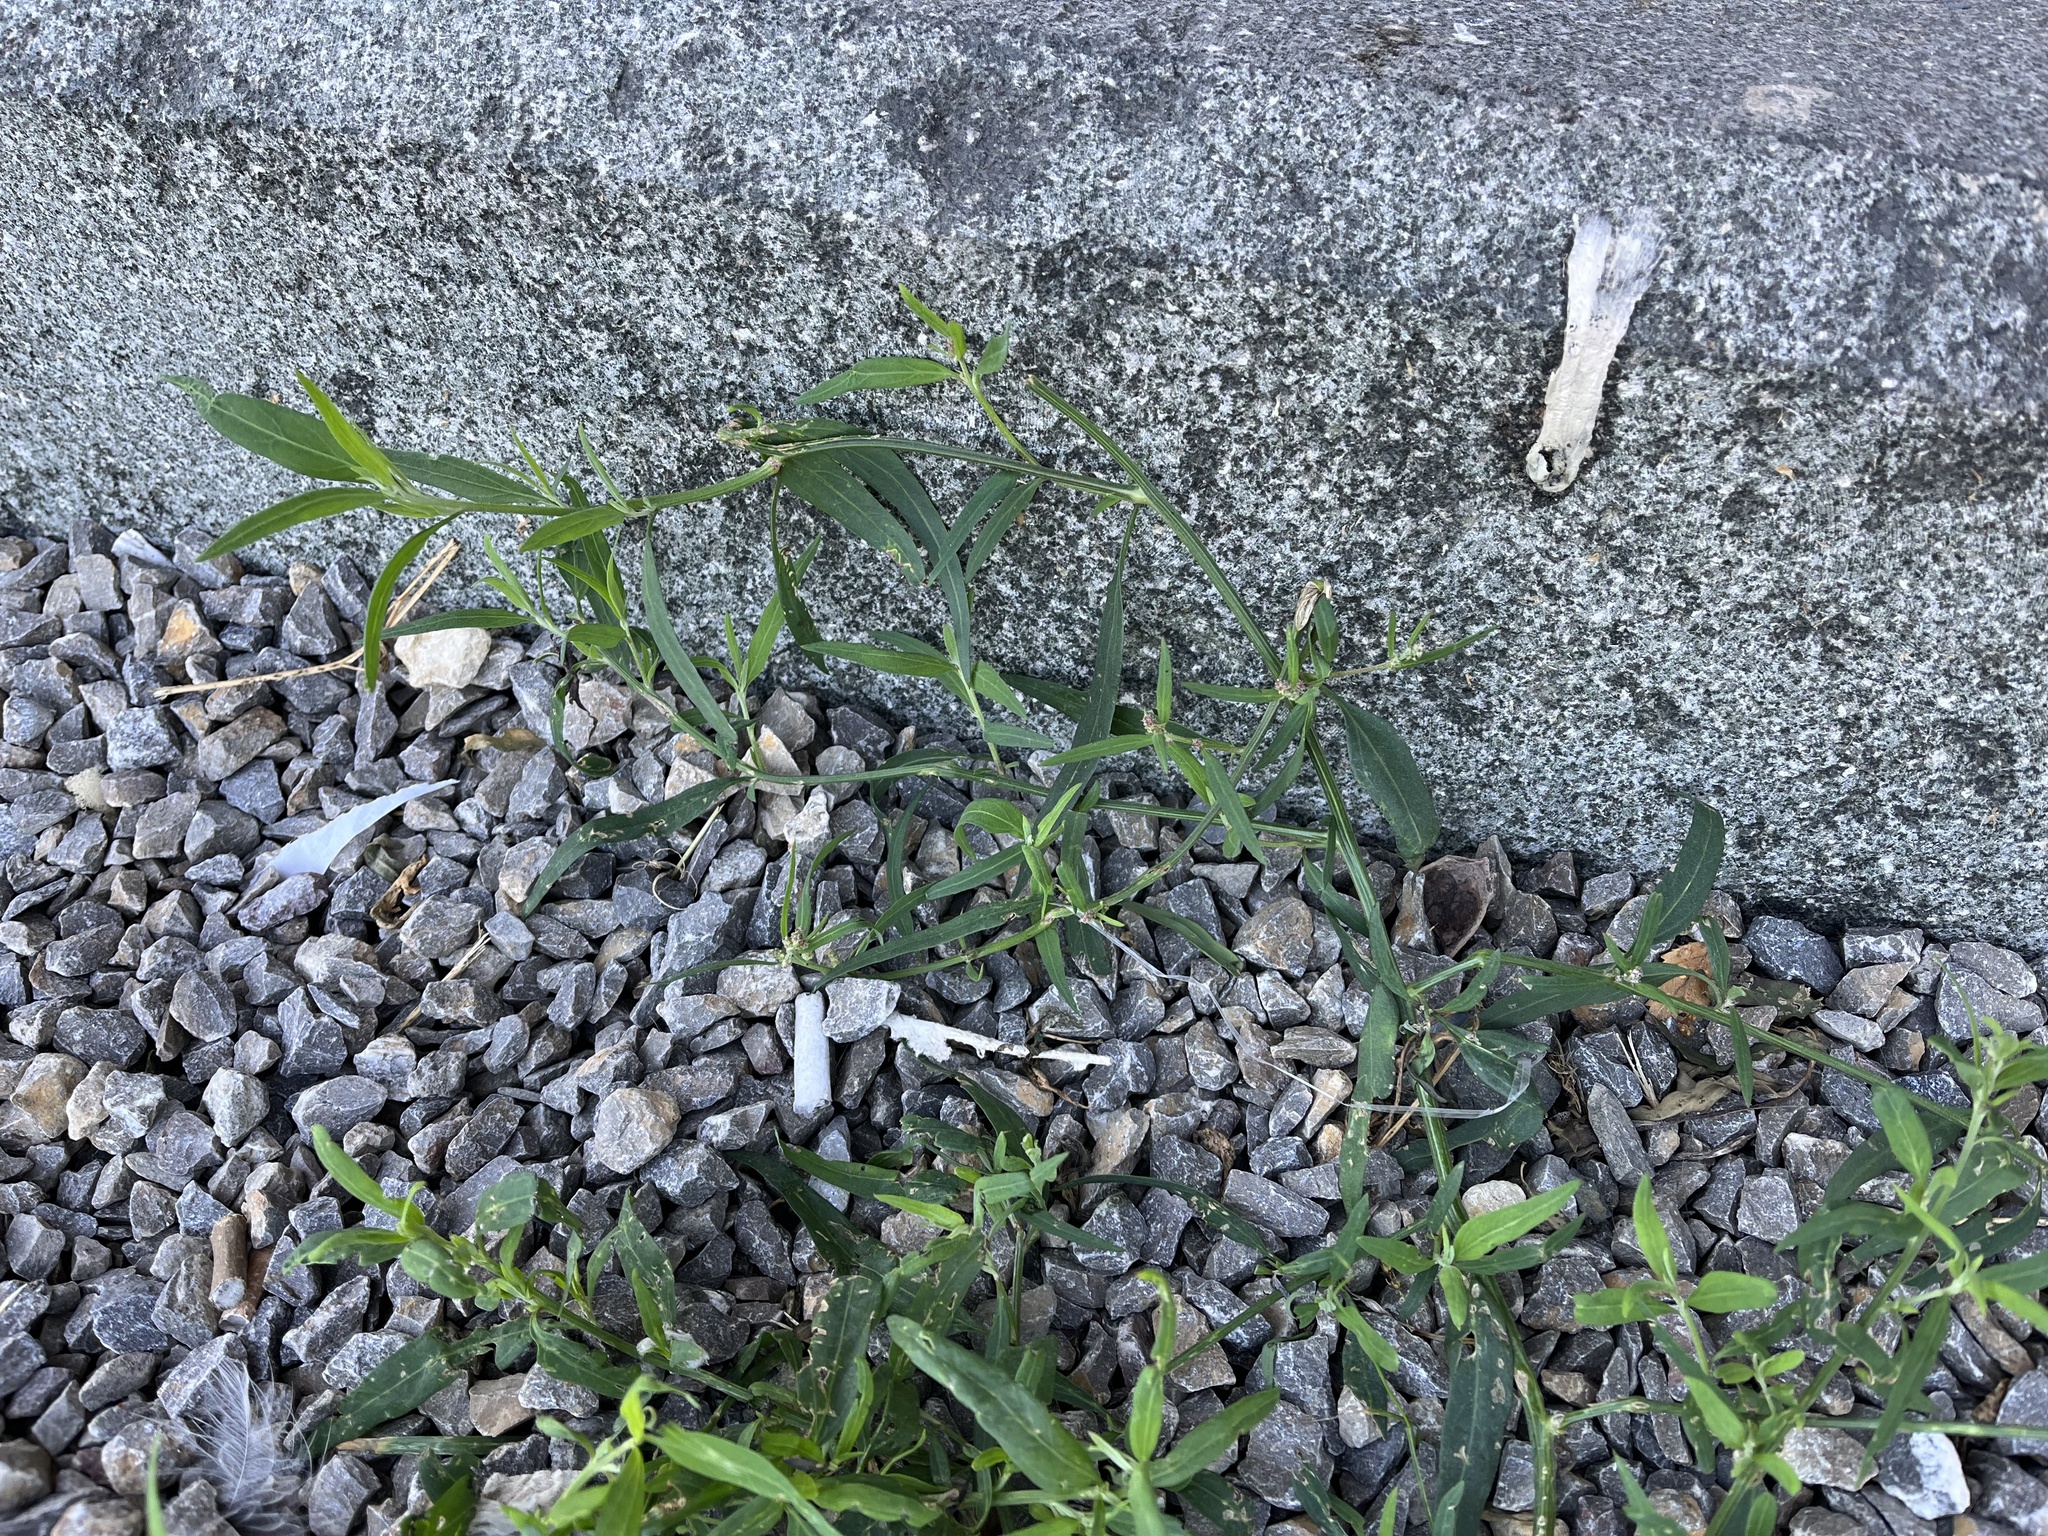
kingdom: Plantae
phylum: Tracheophyta
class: Magnoliopsida
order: Caryophyllales
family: Amaranthaceae
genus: Atriplex
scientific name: Atriplex patula
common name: Common orache
